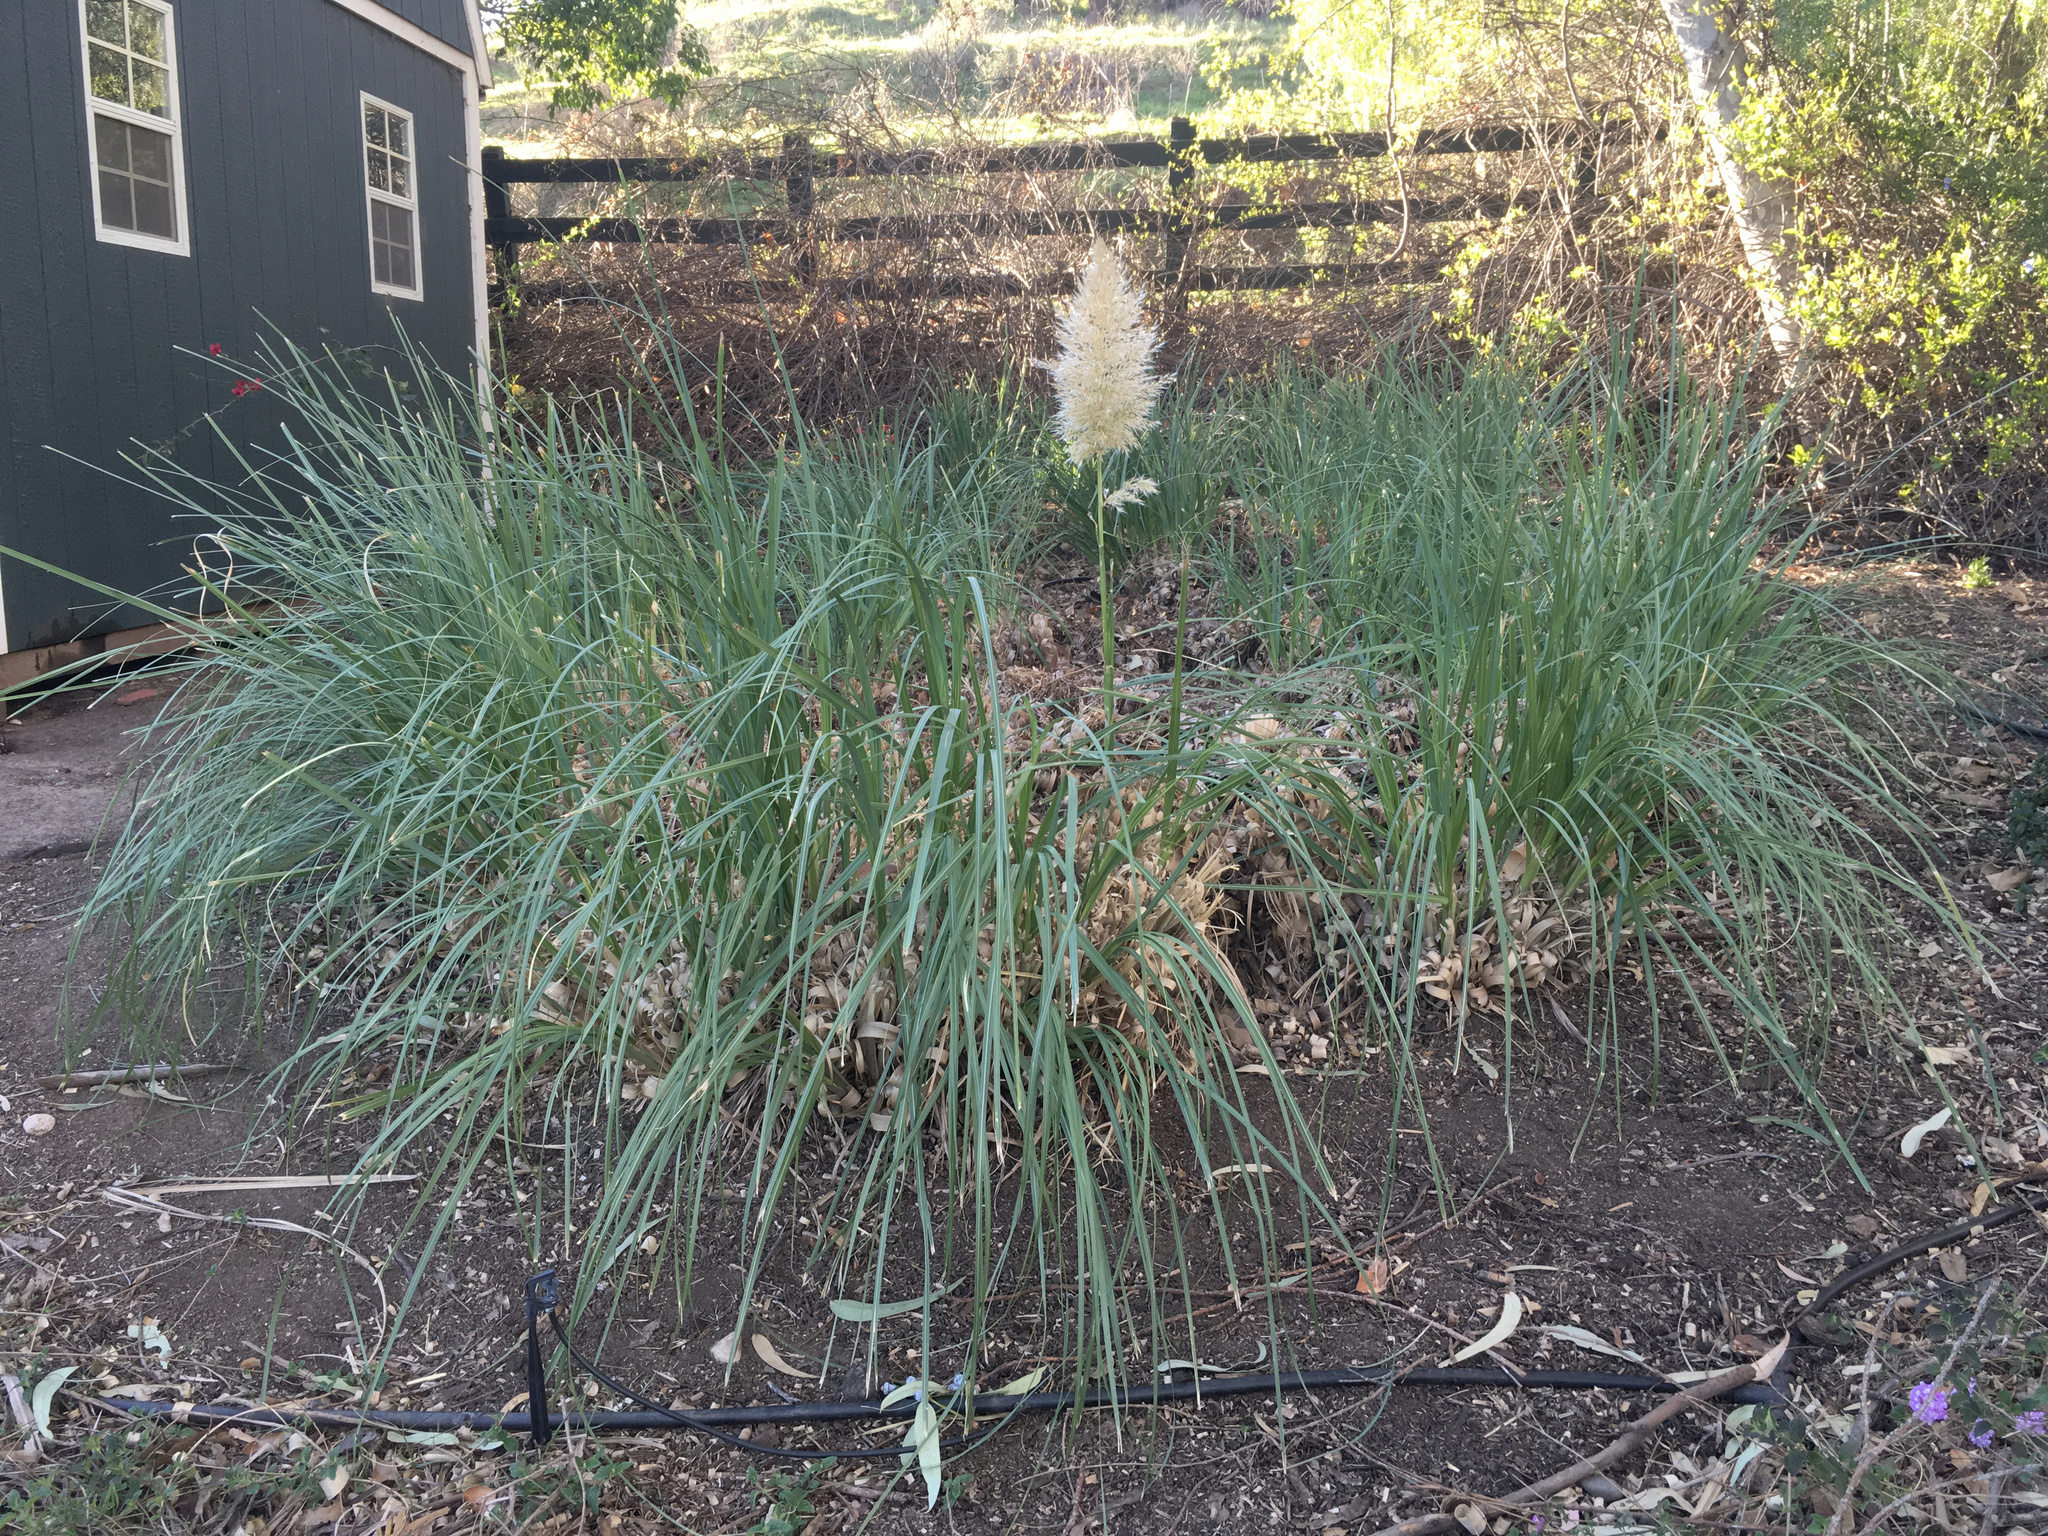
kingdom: Plantae
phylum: Tracheophyta
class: Liliopsida
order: Poales
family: Poaceae
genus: Cortaderia
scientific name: Cortaderia selloana
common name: Uruguayan pampas grass
